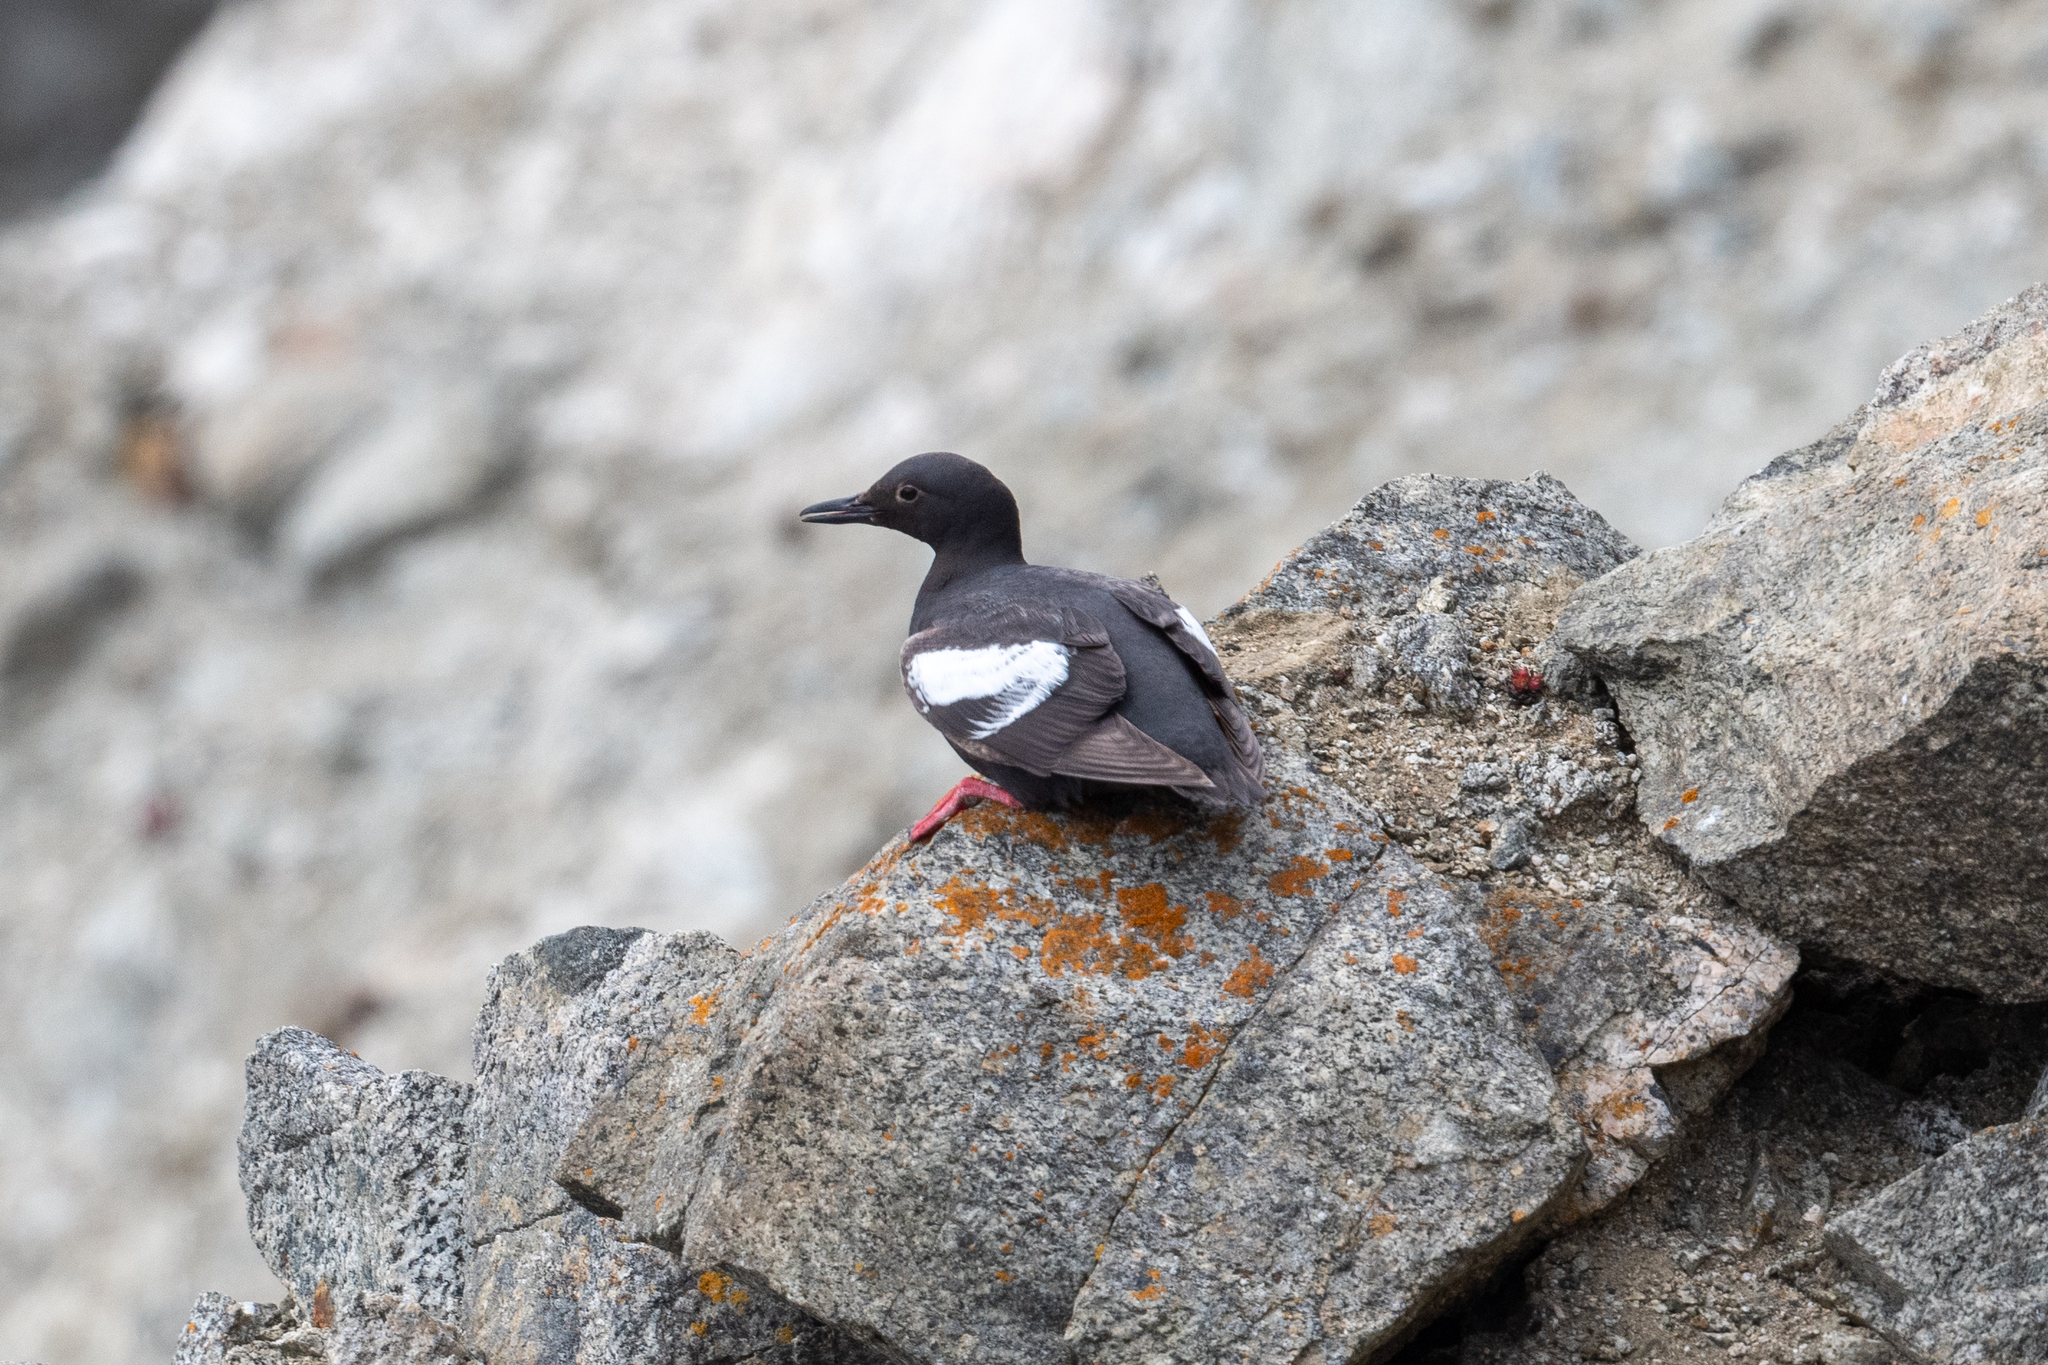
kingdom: Animalia
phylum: Chordata
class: Aves
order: Charadriiformes
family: Alcidae
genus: Cepphus
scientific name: Cepphus columba
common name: Pigeon guillemot
